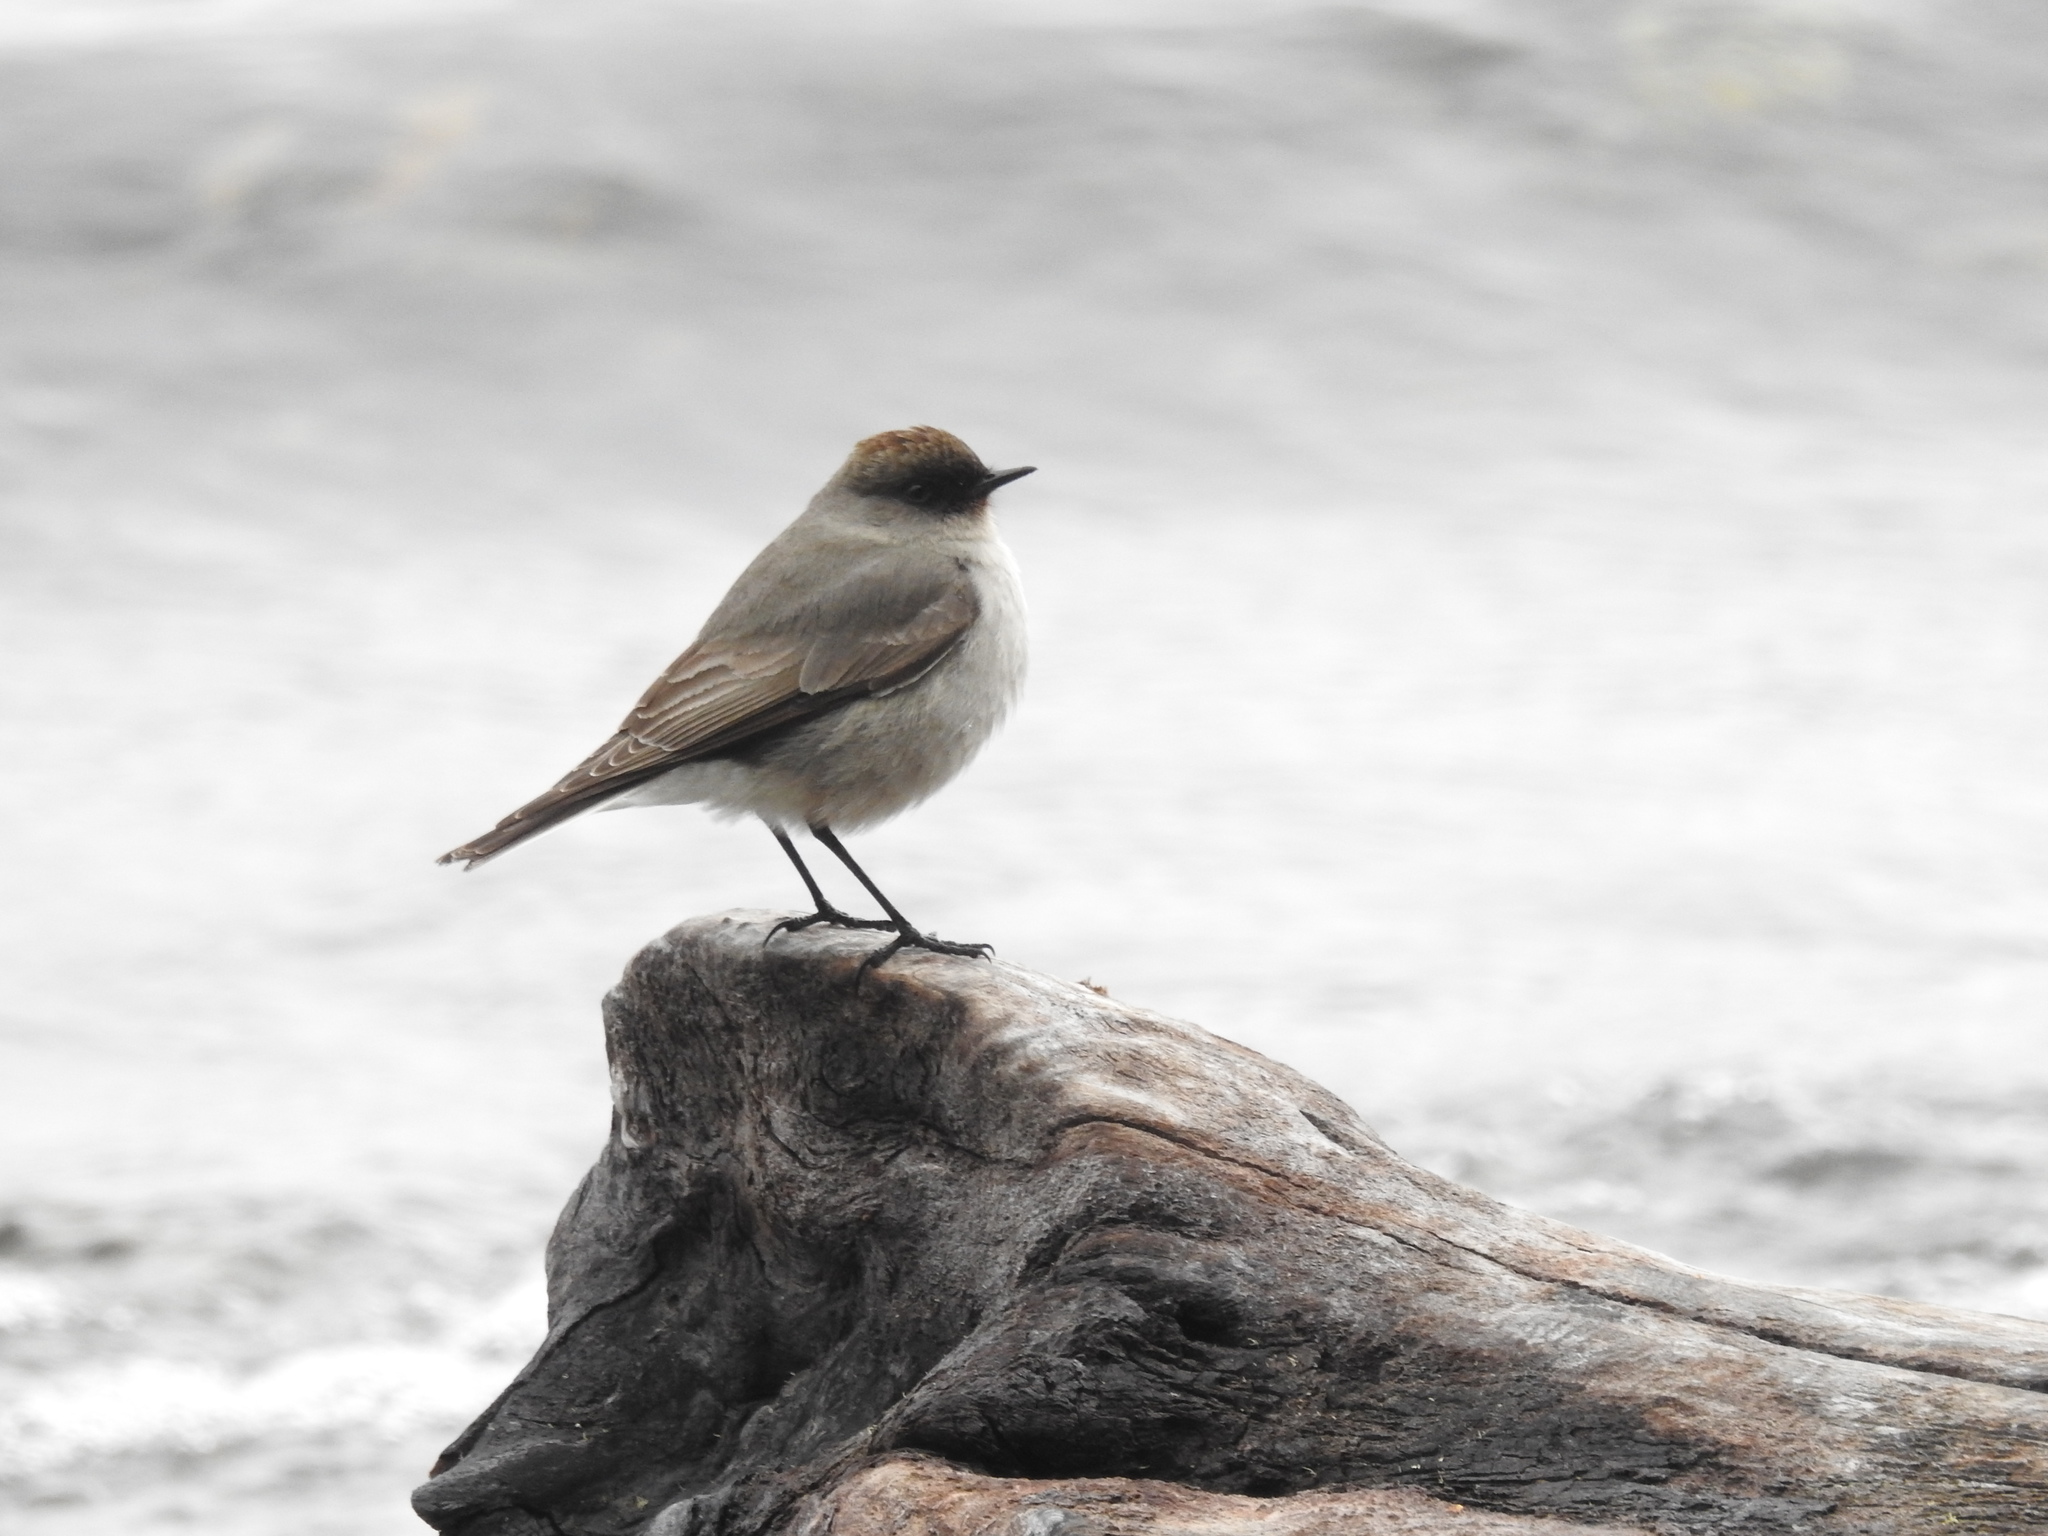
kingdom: Animalia
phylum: Chordata
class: Aves
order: Passeriformes
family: Tyrannidae
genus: Muscisaxicola
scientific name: Muscisaxicola maclovianus
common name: Dark-faced ground tyrant
